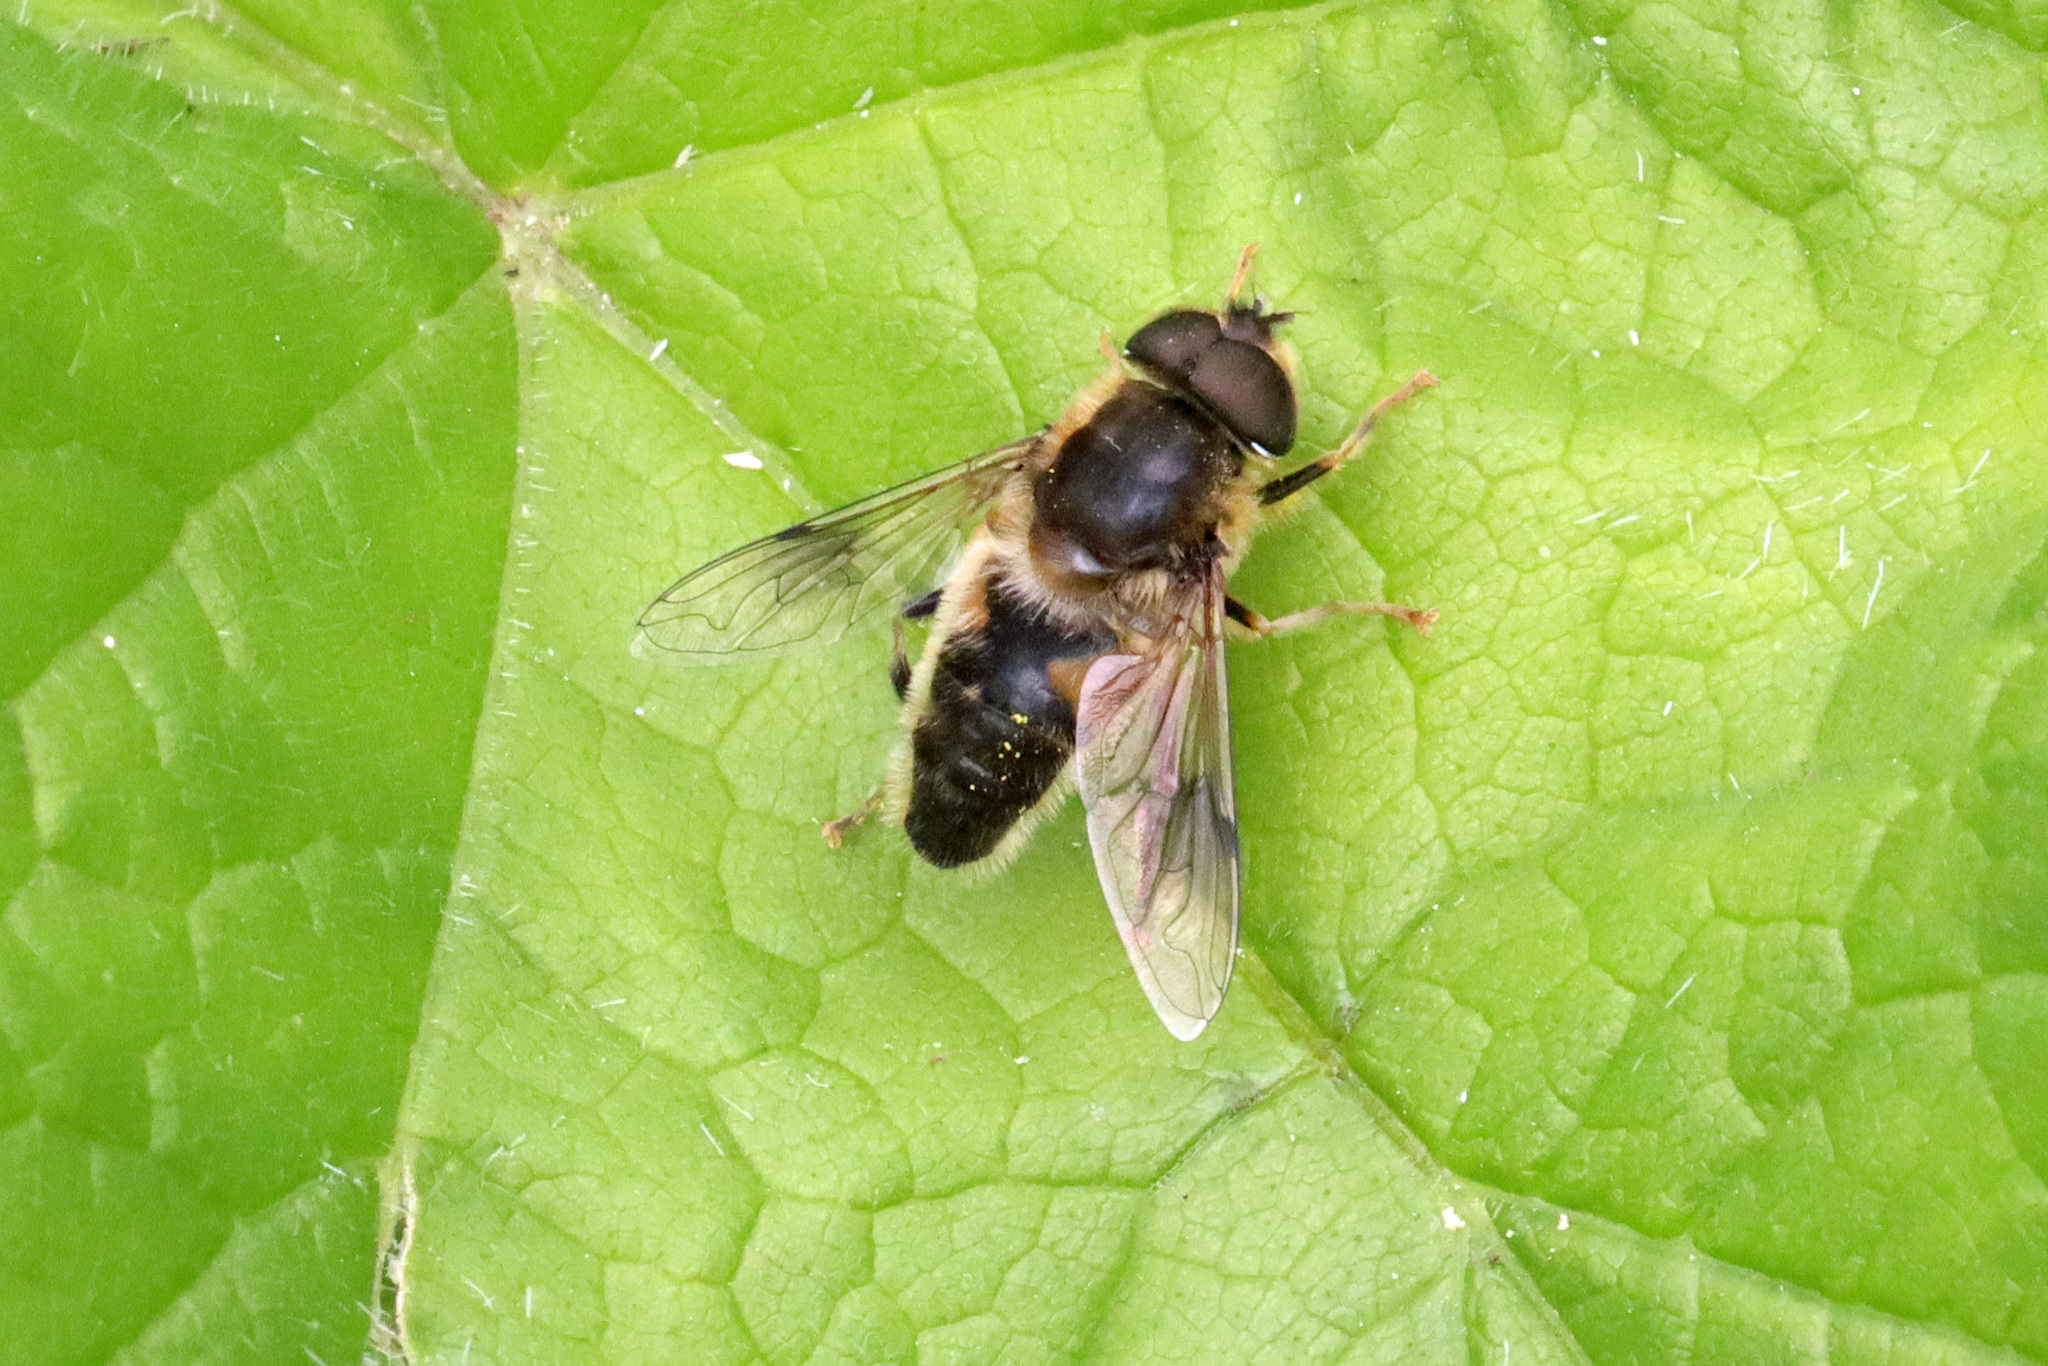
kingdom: Animalia
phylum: Arthropoda
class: Insecta
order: Diptera
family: Syrphidae
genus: Eristalis
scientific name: Eristalis pertinax
